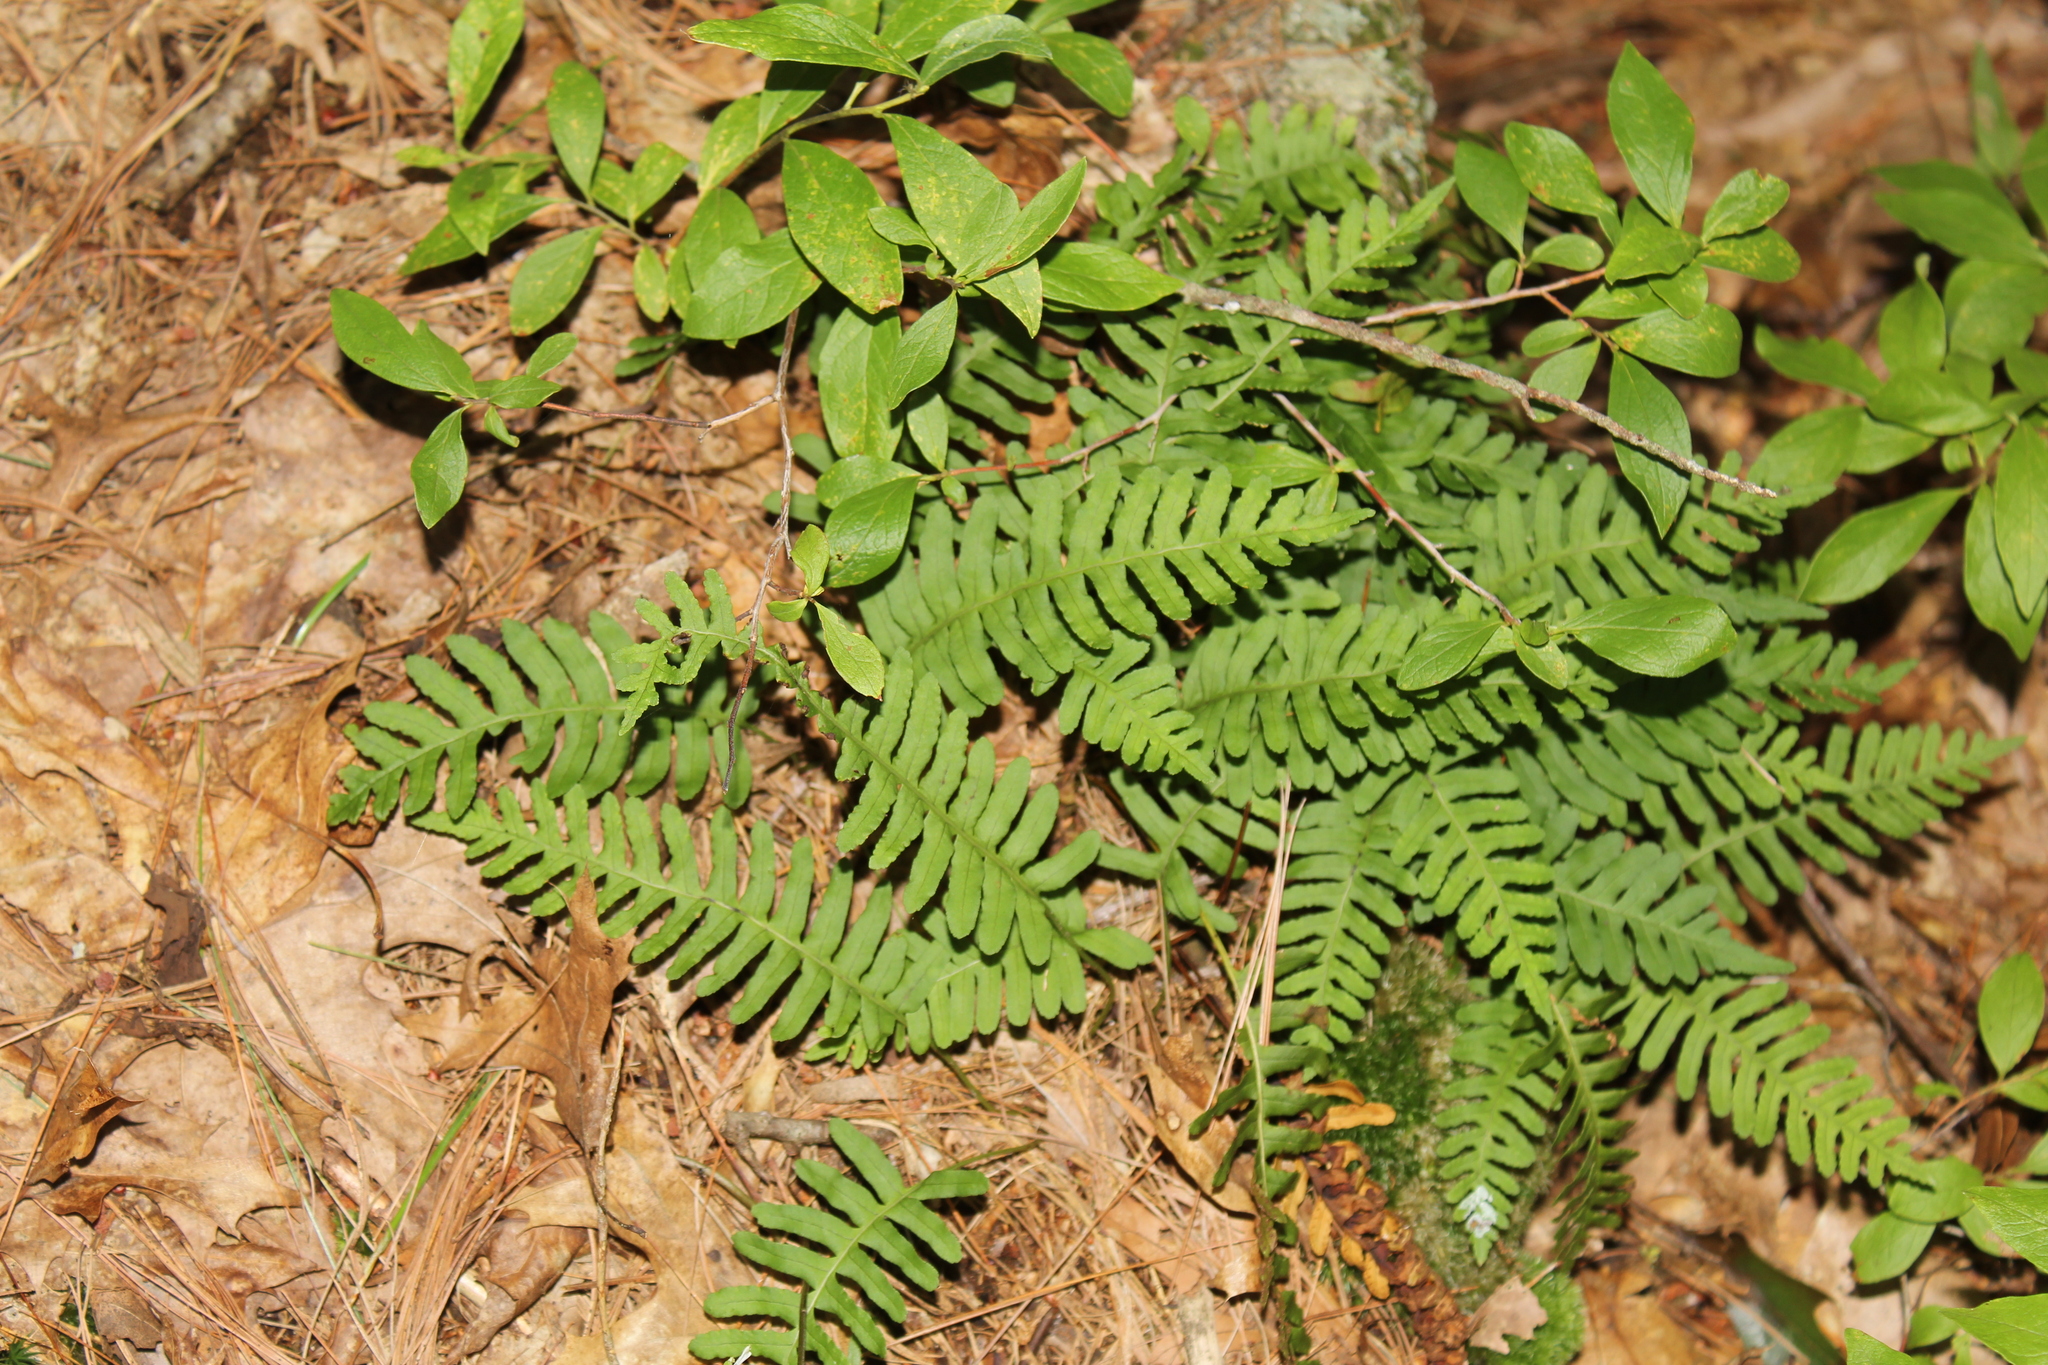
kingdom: Plantae
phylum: Tracheophyta
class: Polypodiopsida
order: Polypodiales
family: Polypodiaceae
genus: Polypodium
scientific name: Polypodium virginianum
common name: American wall fern
